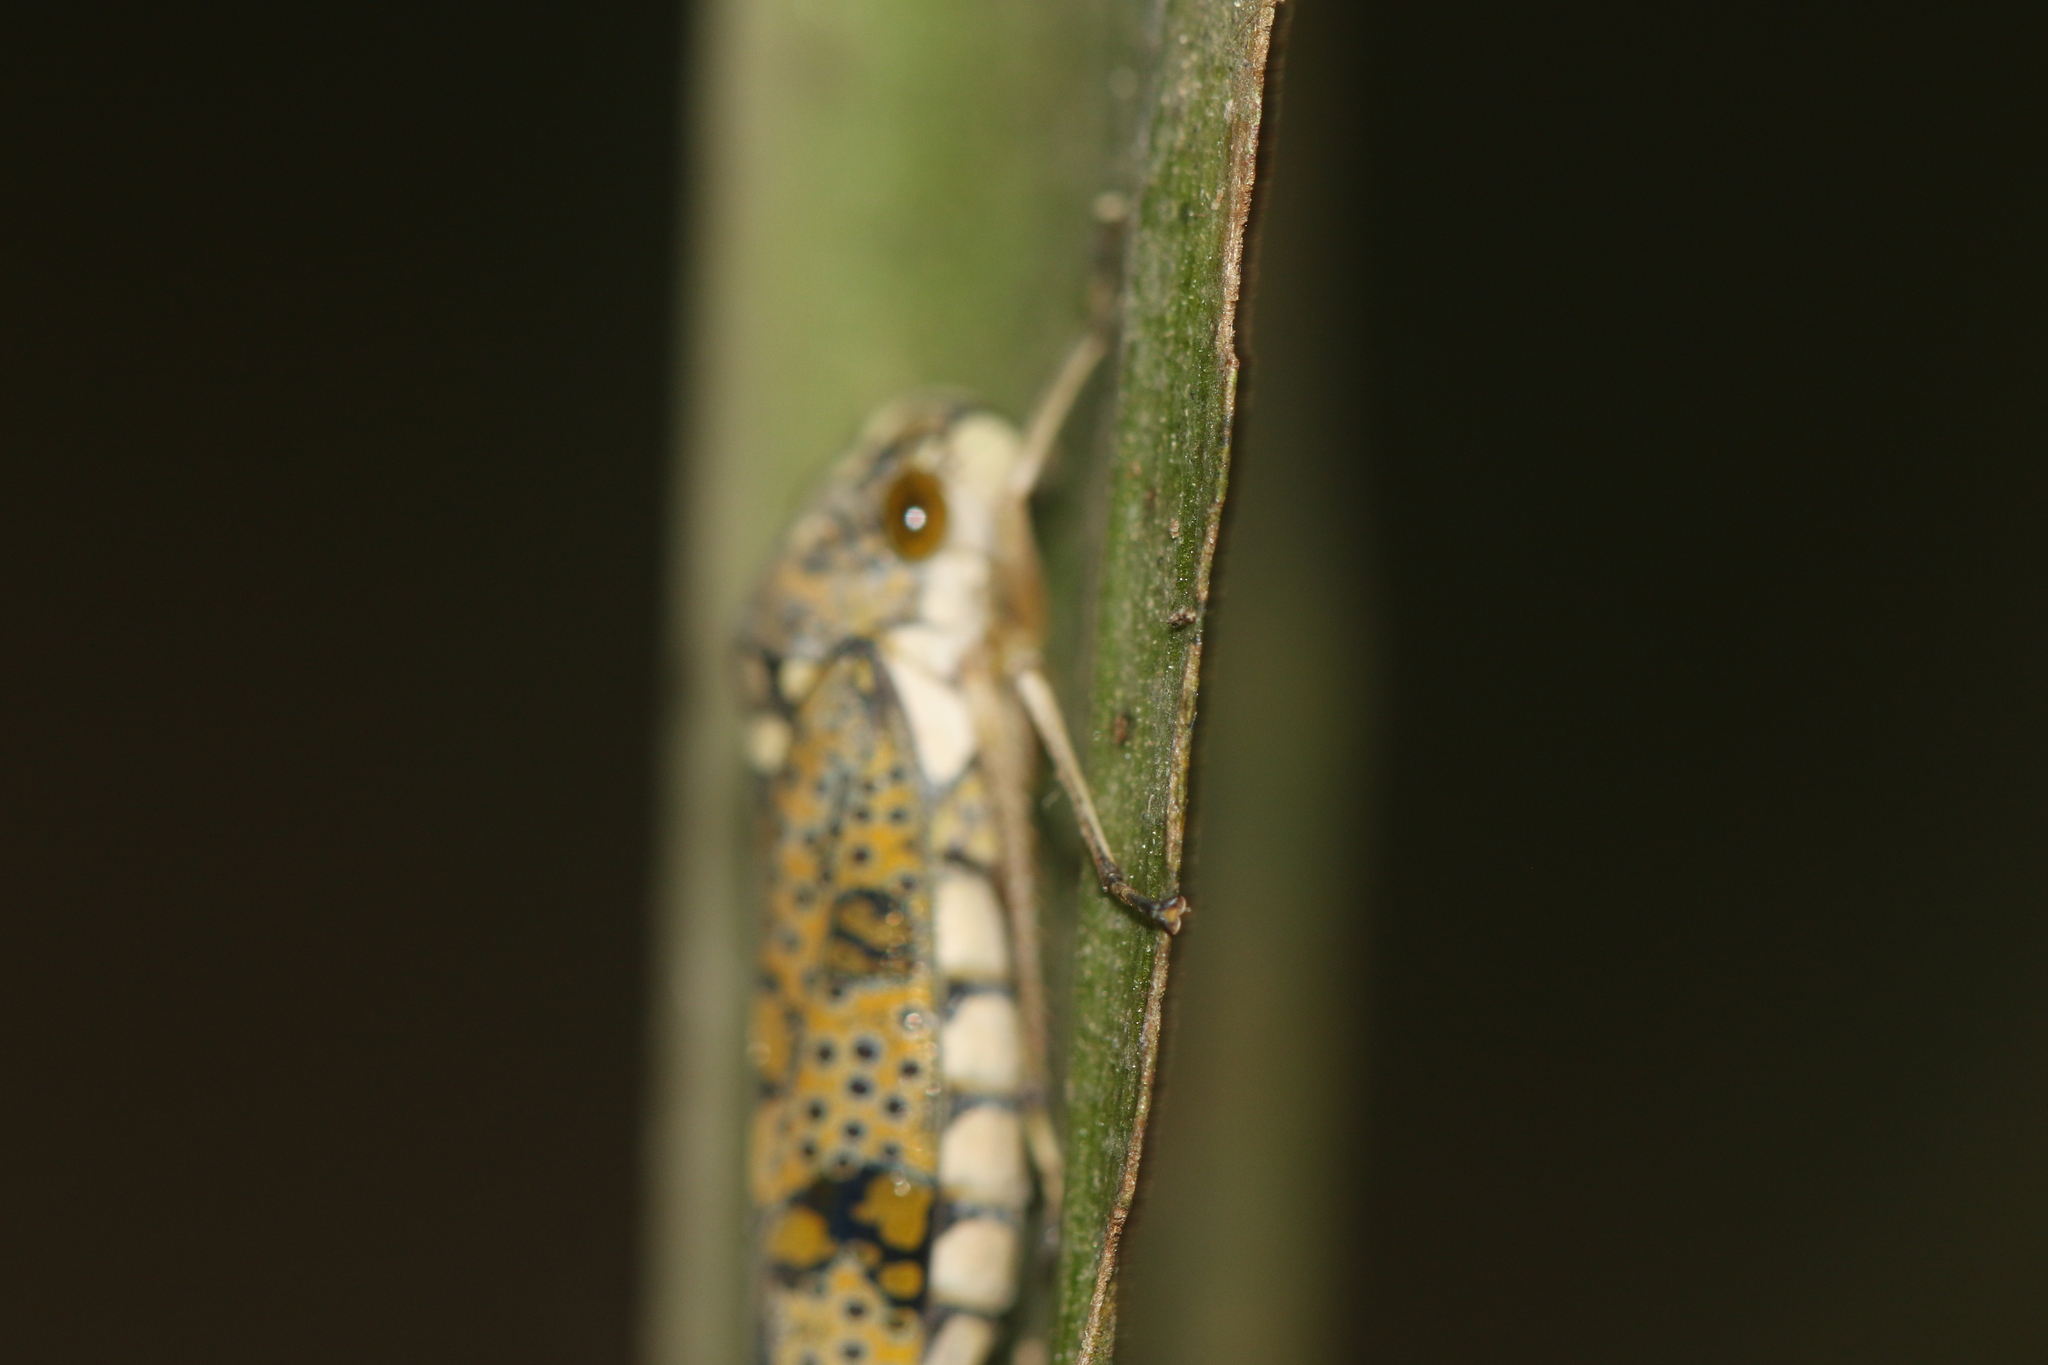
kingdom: Animalia
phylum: Arthropoda
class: Insecta
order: Hemiptera
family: Cicadellidae
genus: Molomea
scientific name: Molomea hamleti
